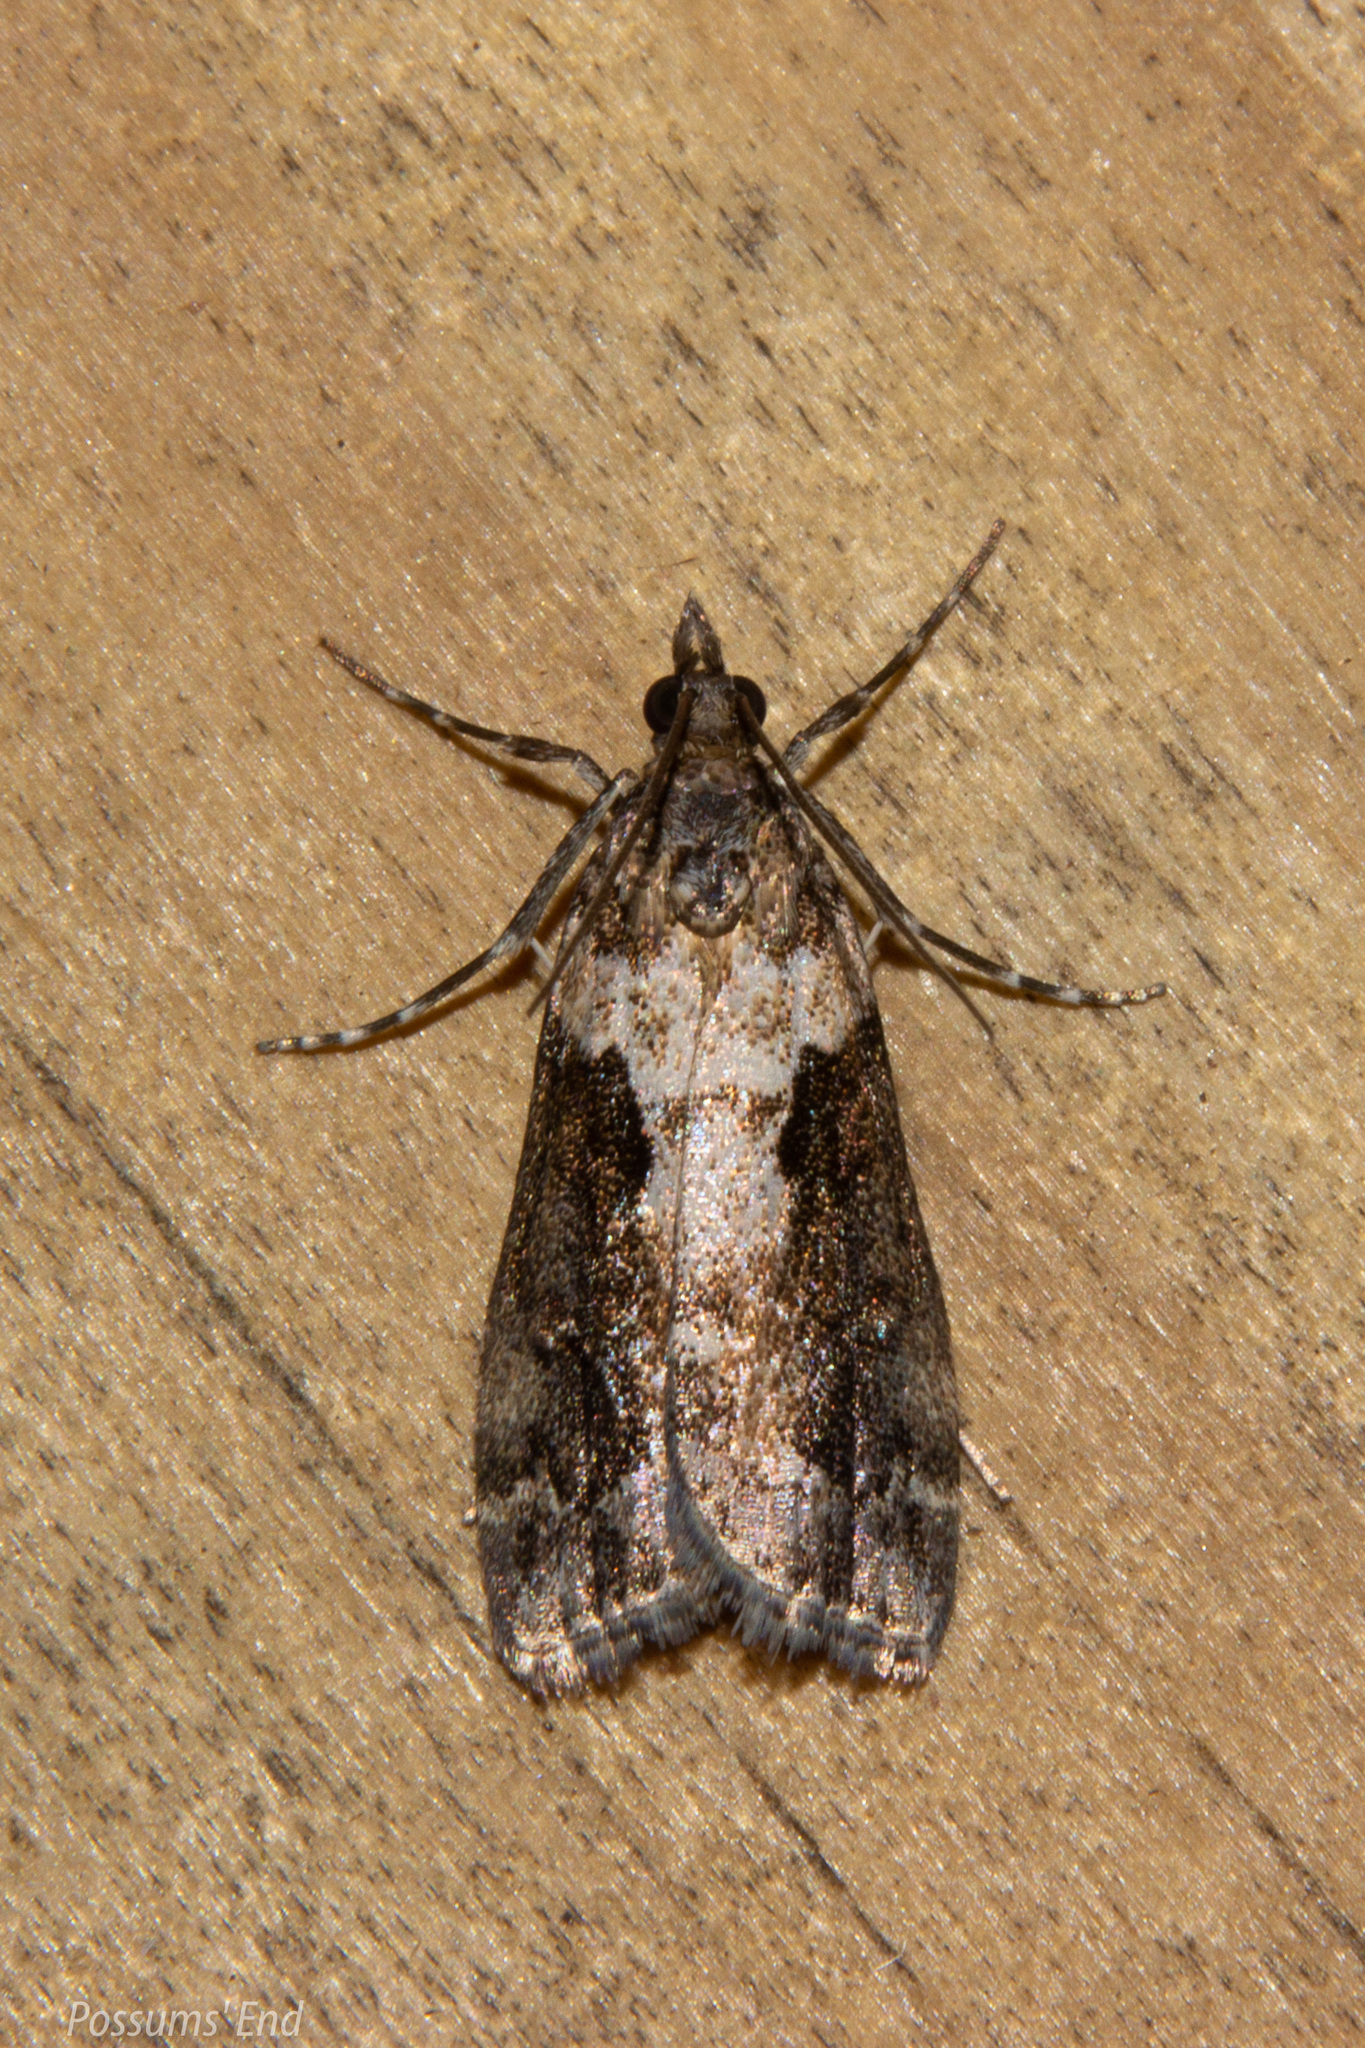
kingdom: Animalia
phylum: Arthropoda
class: Insecta
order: Lepidoptera
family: Crambidae
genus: Eudonia
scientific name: Eudonia submarginalis
